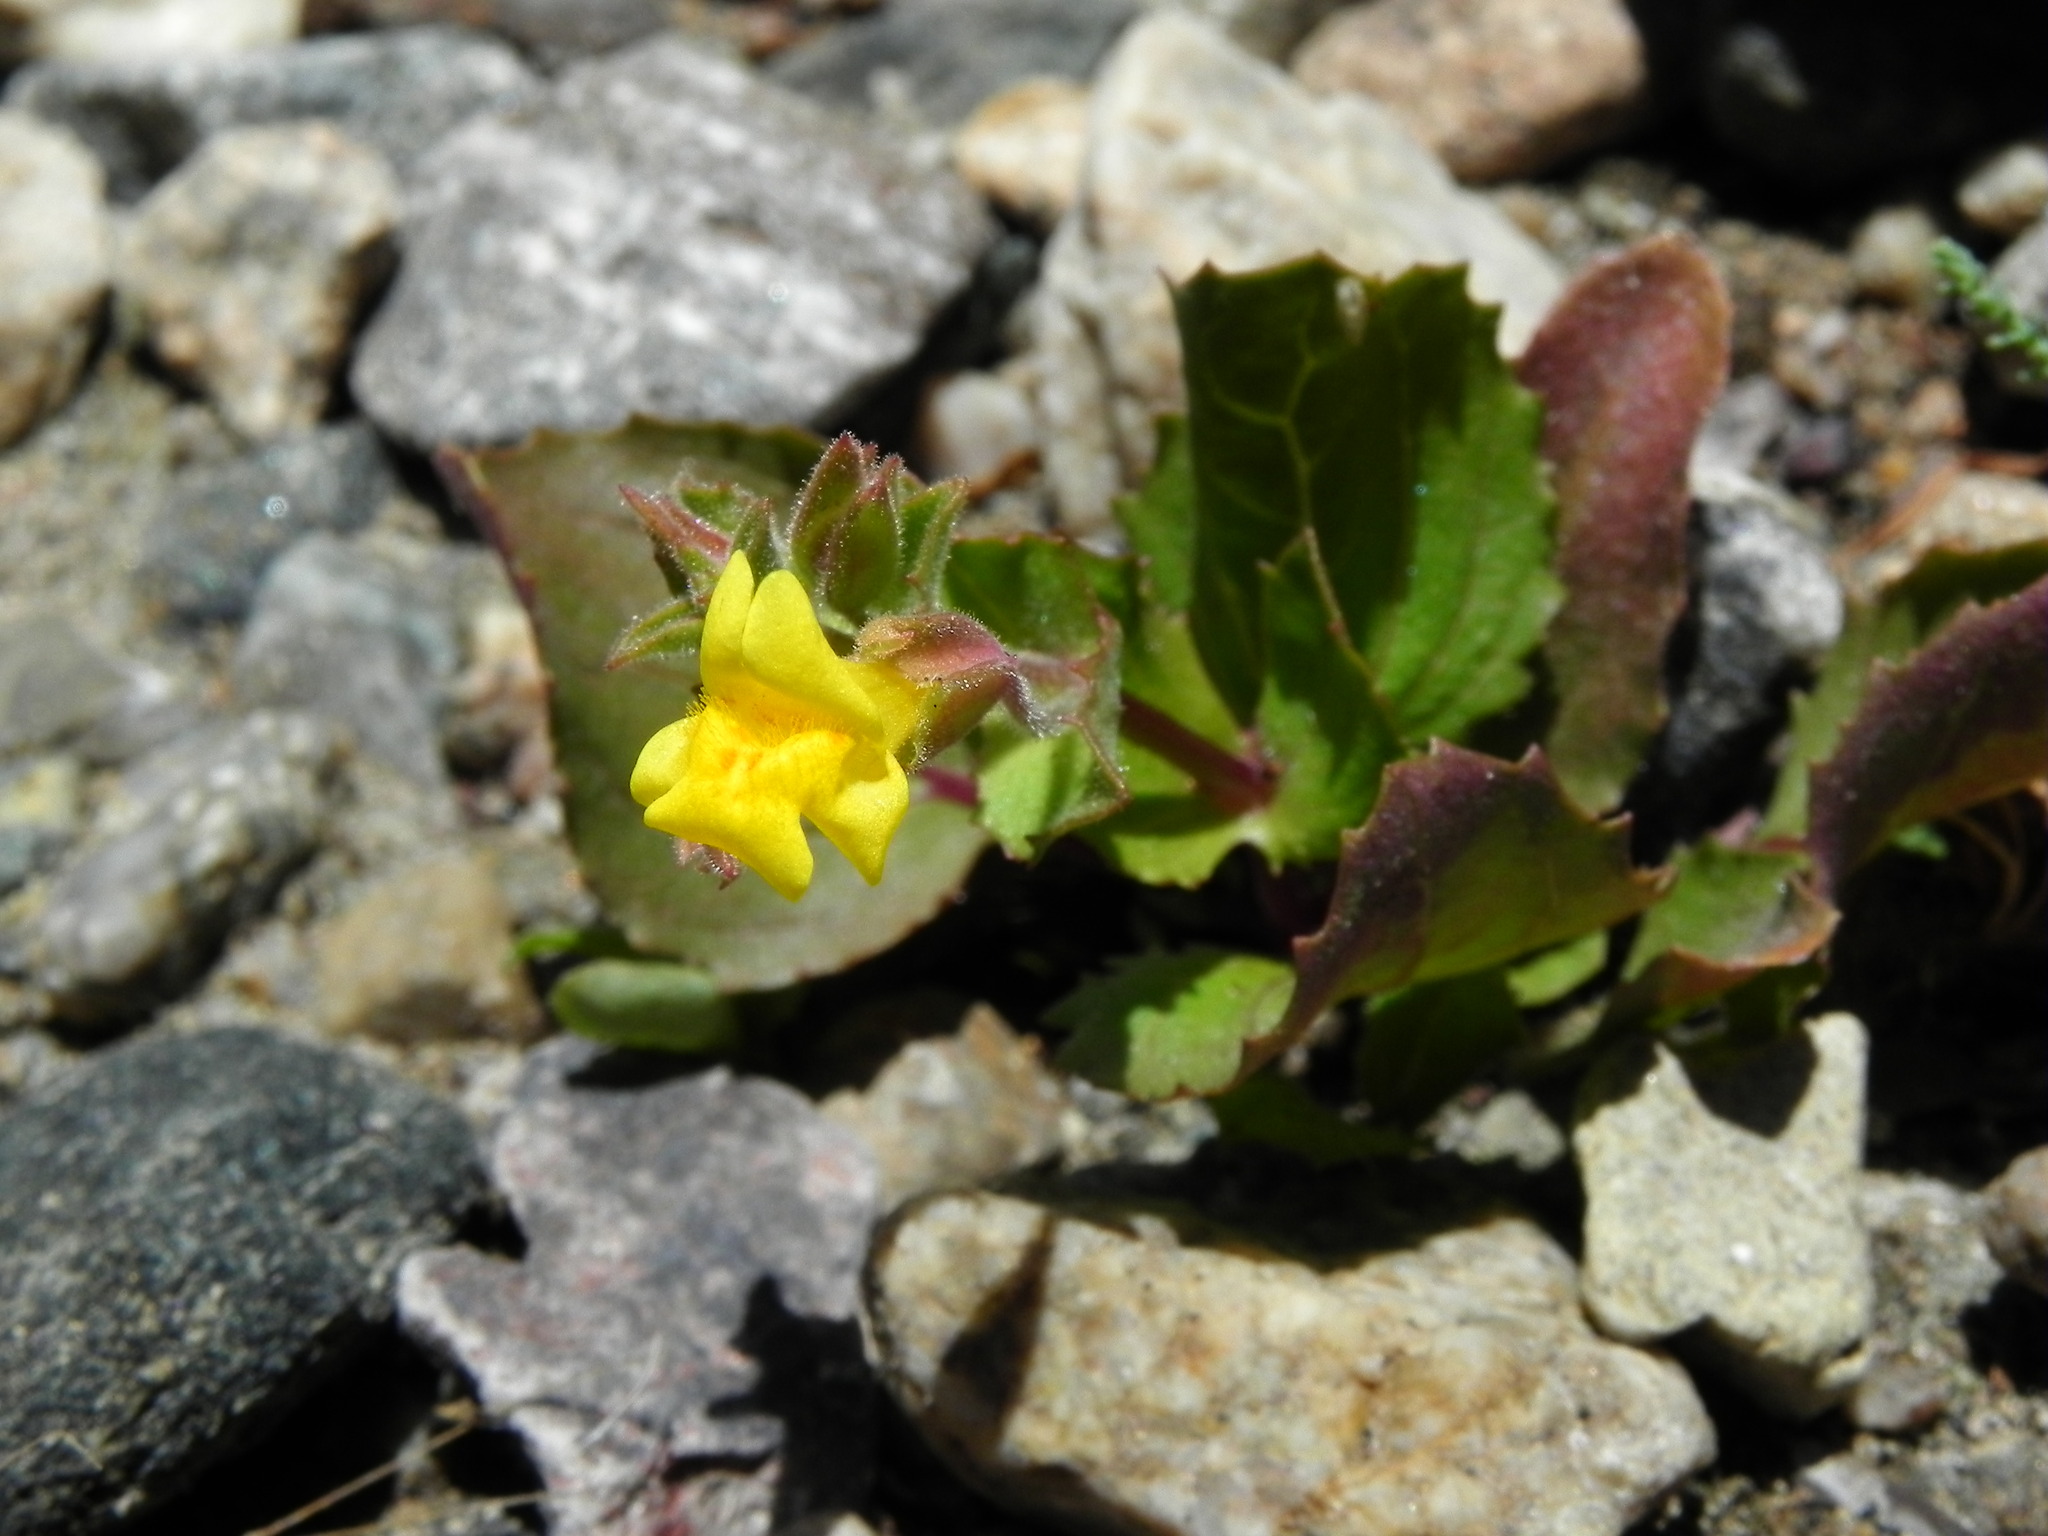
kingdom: Plantae
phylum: Tracheophyta
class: Magnoliopsida
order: Lamiales
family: Phrymaceae
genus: Erythranthe
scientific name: Erythranthe guttata
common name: Monkeyflower
